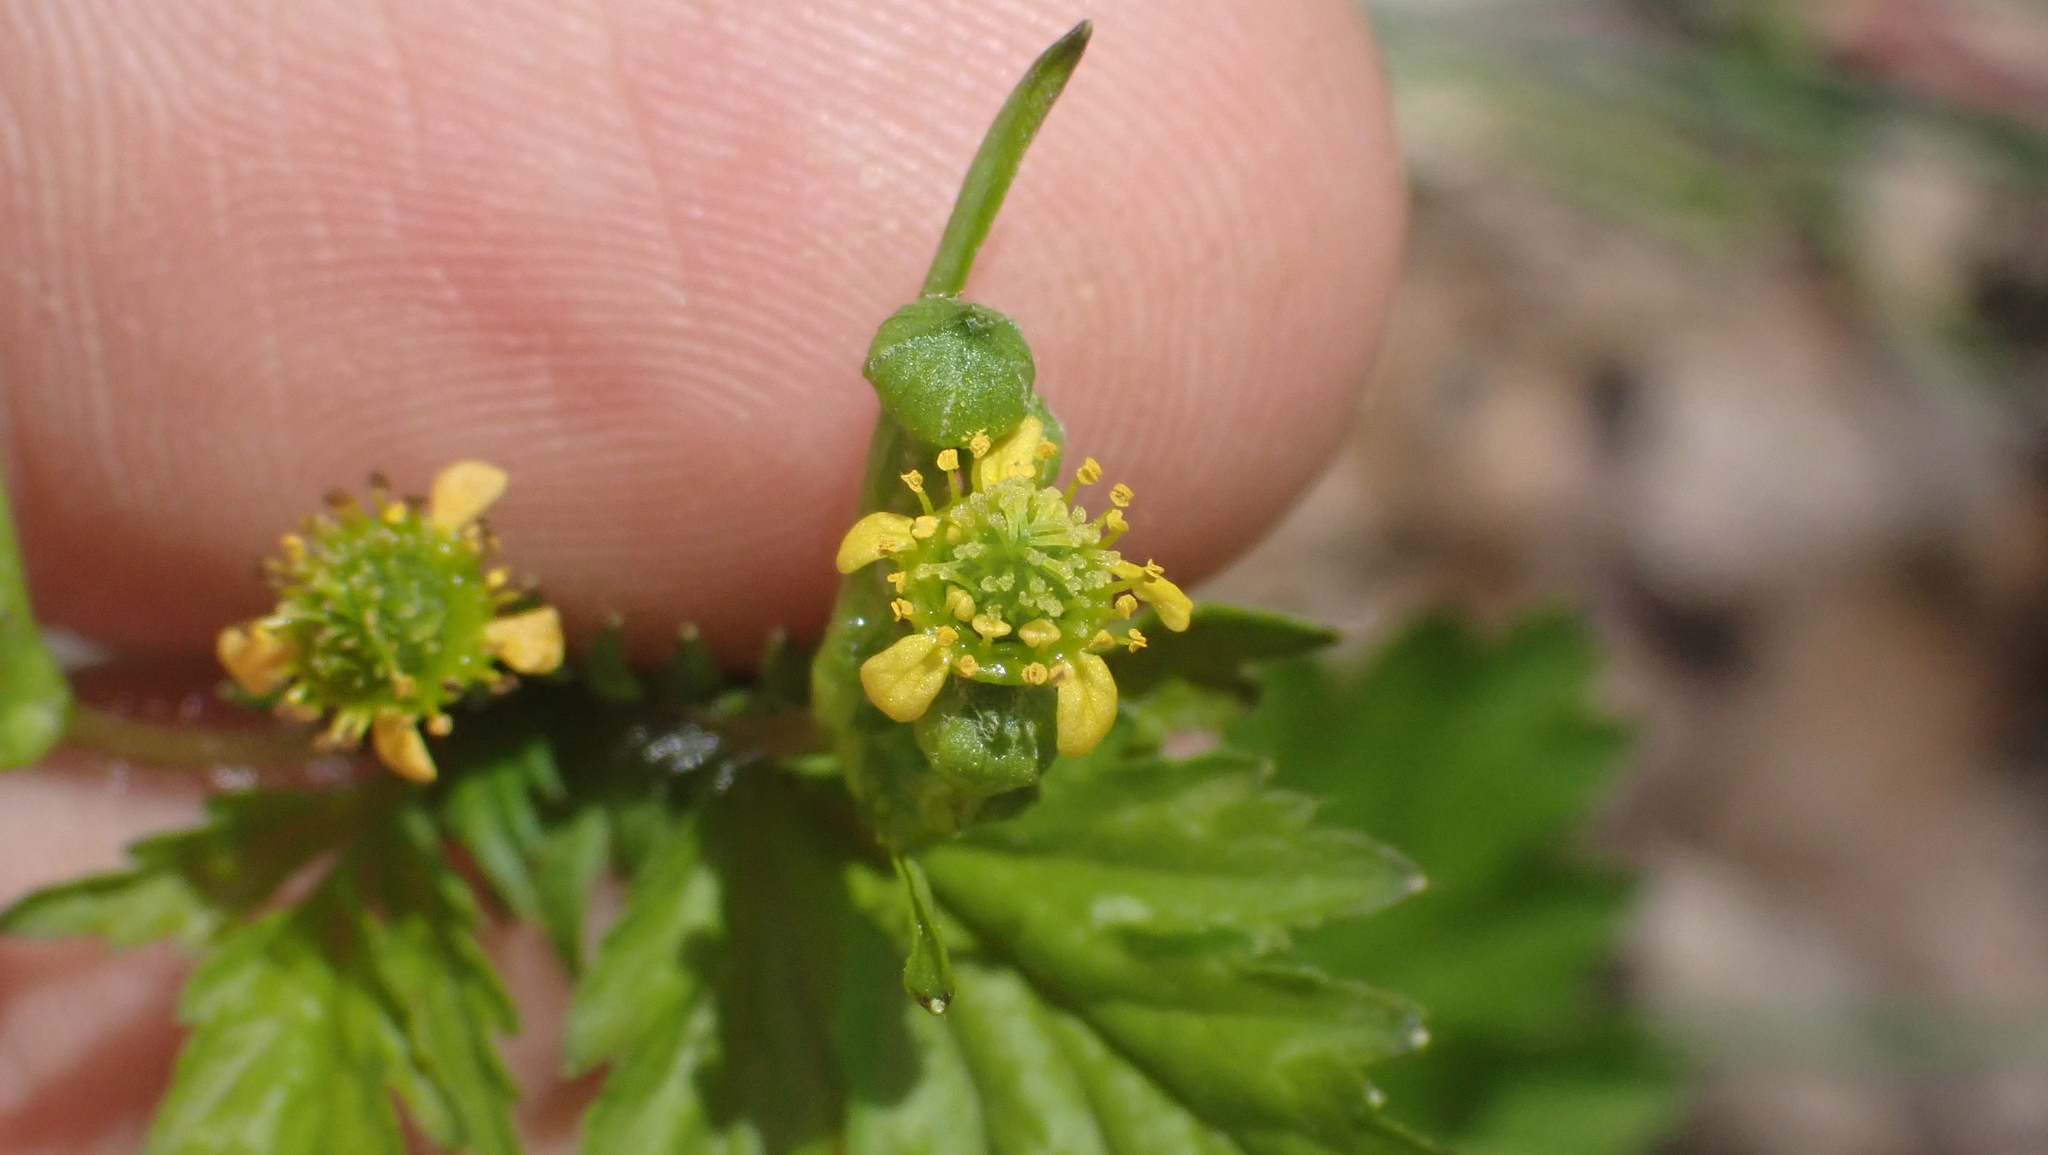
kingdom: Plantae
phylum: Tracheophyta
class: Magnoliopsida
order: Rosales
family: Rosaceae
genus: Geum
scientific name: Geum vernum
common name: Spring avens
